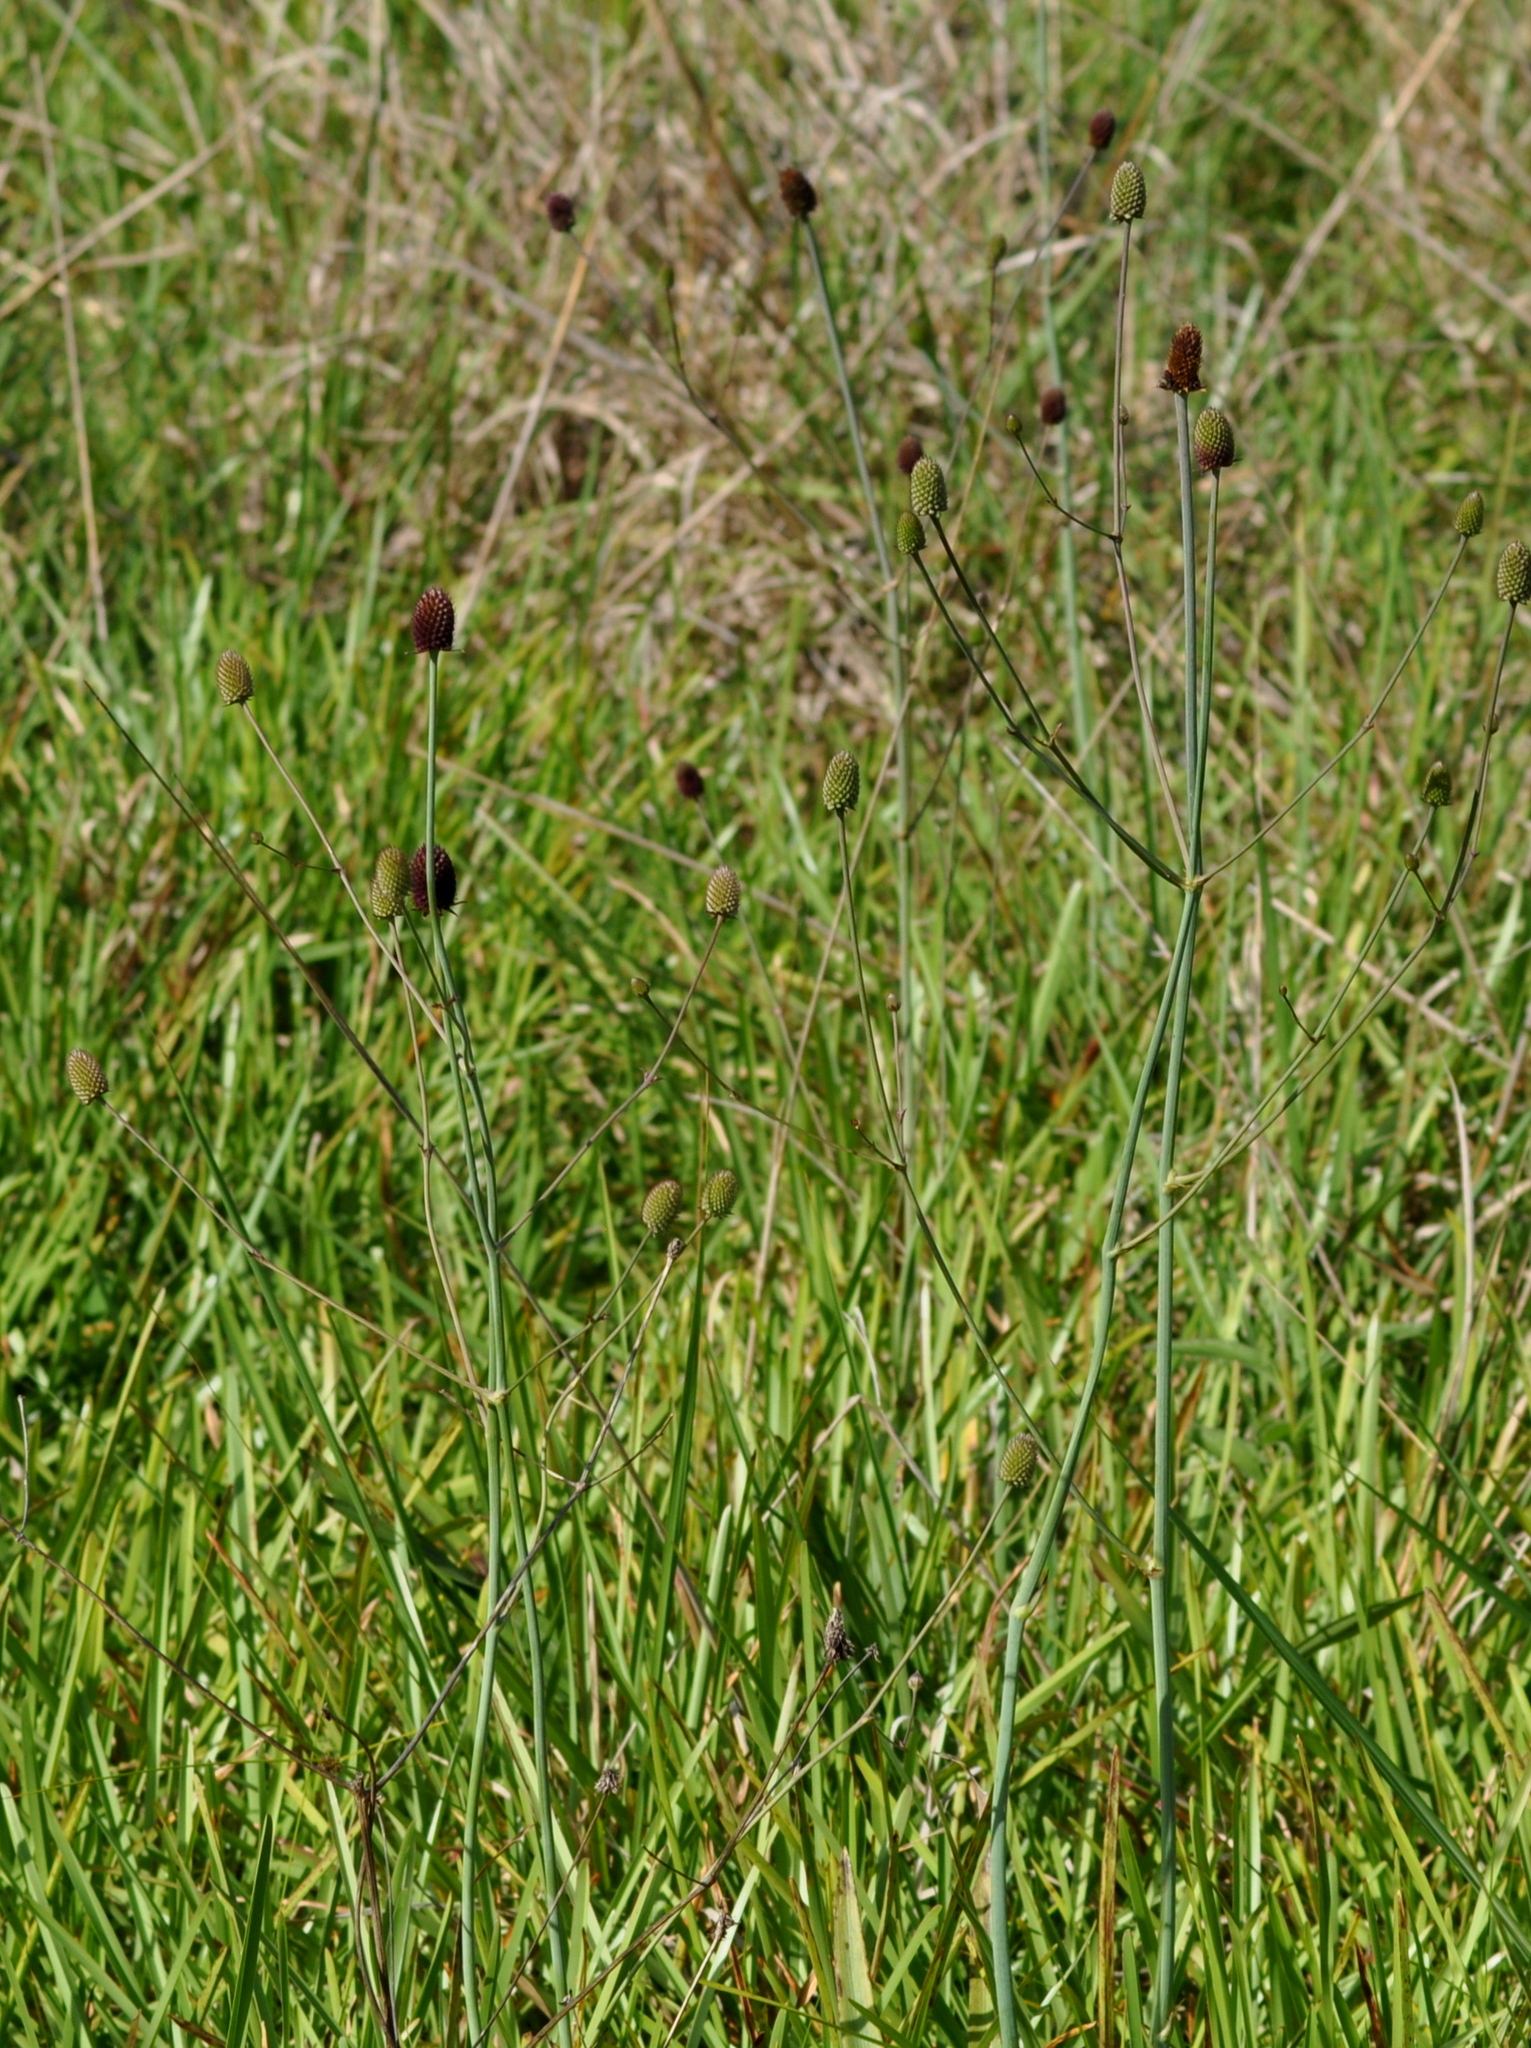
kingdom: Plantae
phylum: Tracheophyta
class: Magnoliopsida
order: Apiales
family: Apiaceae
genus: Eryngium
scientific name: Eryngium sanguisorba
